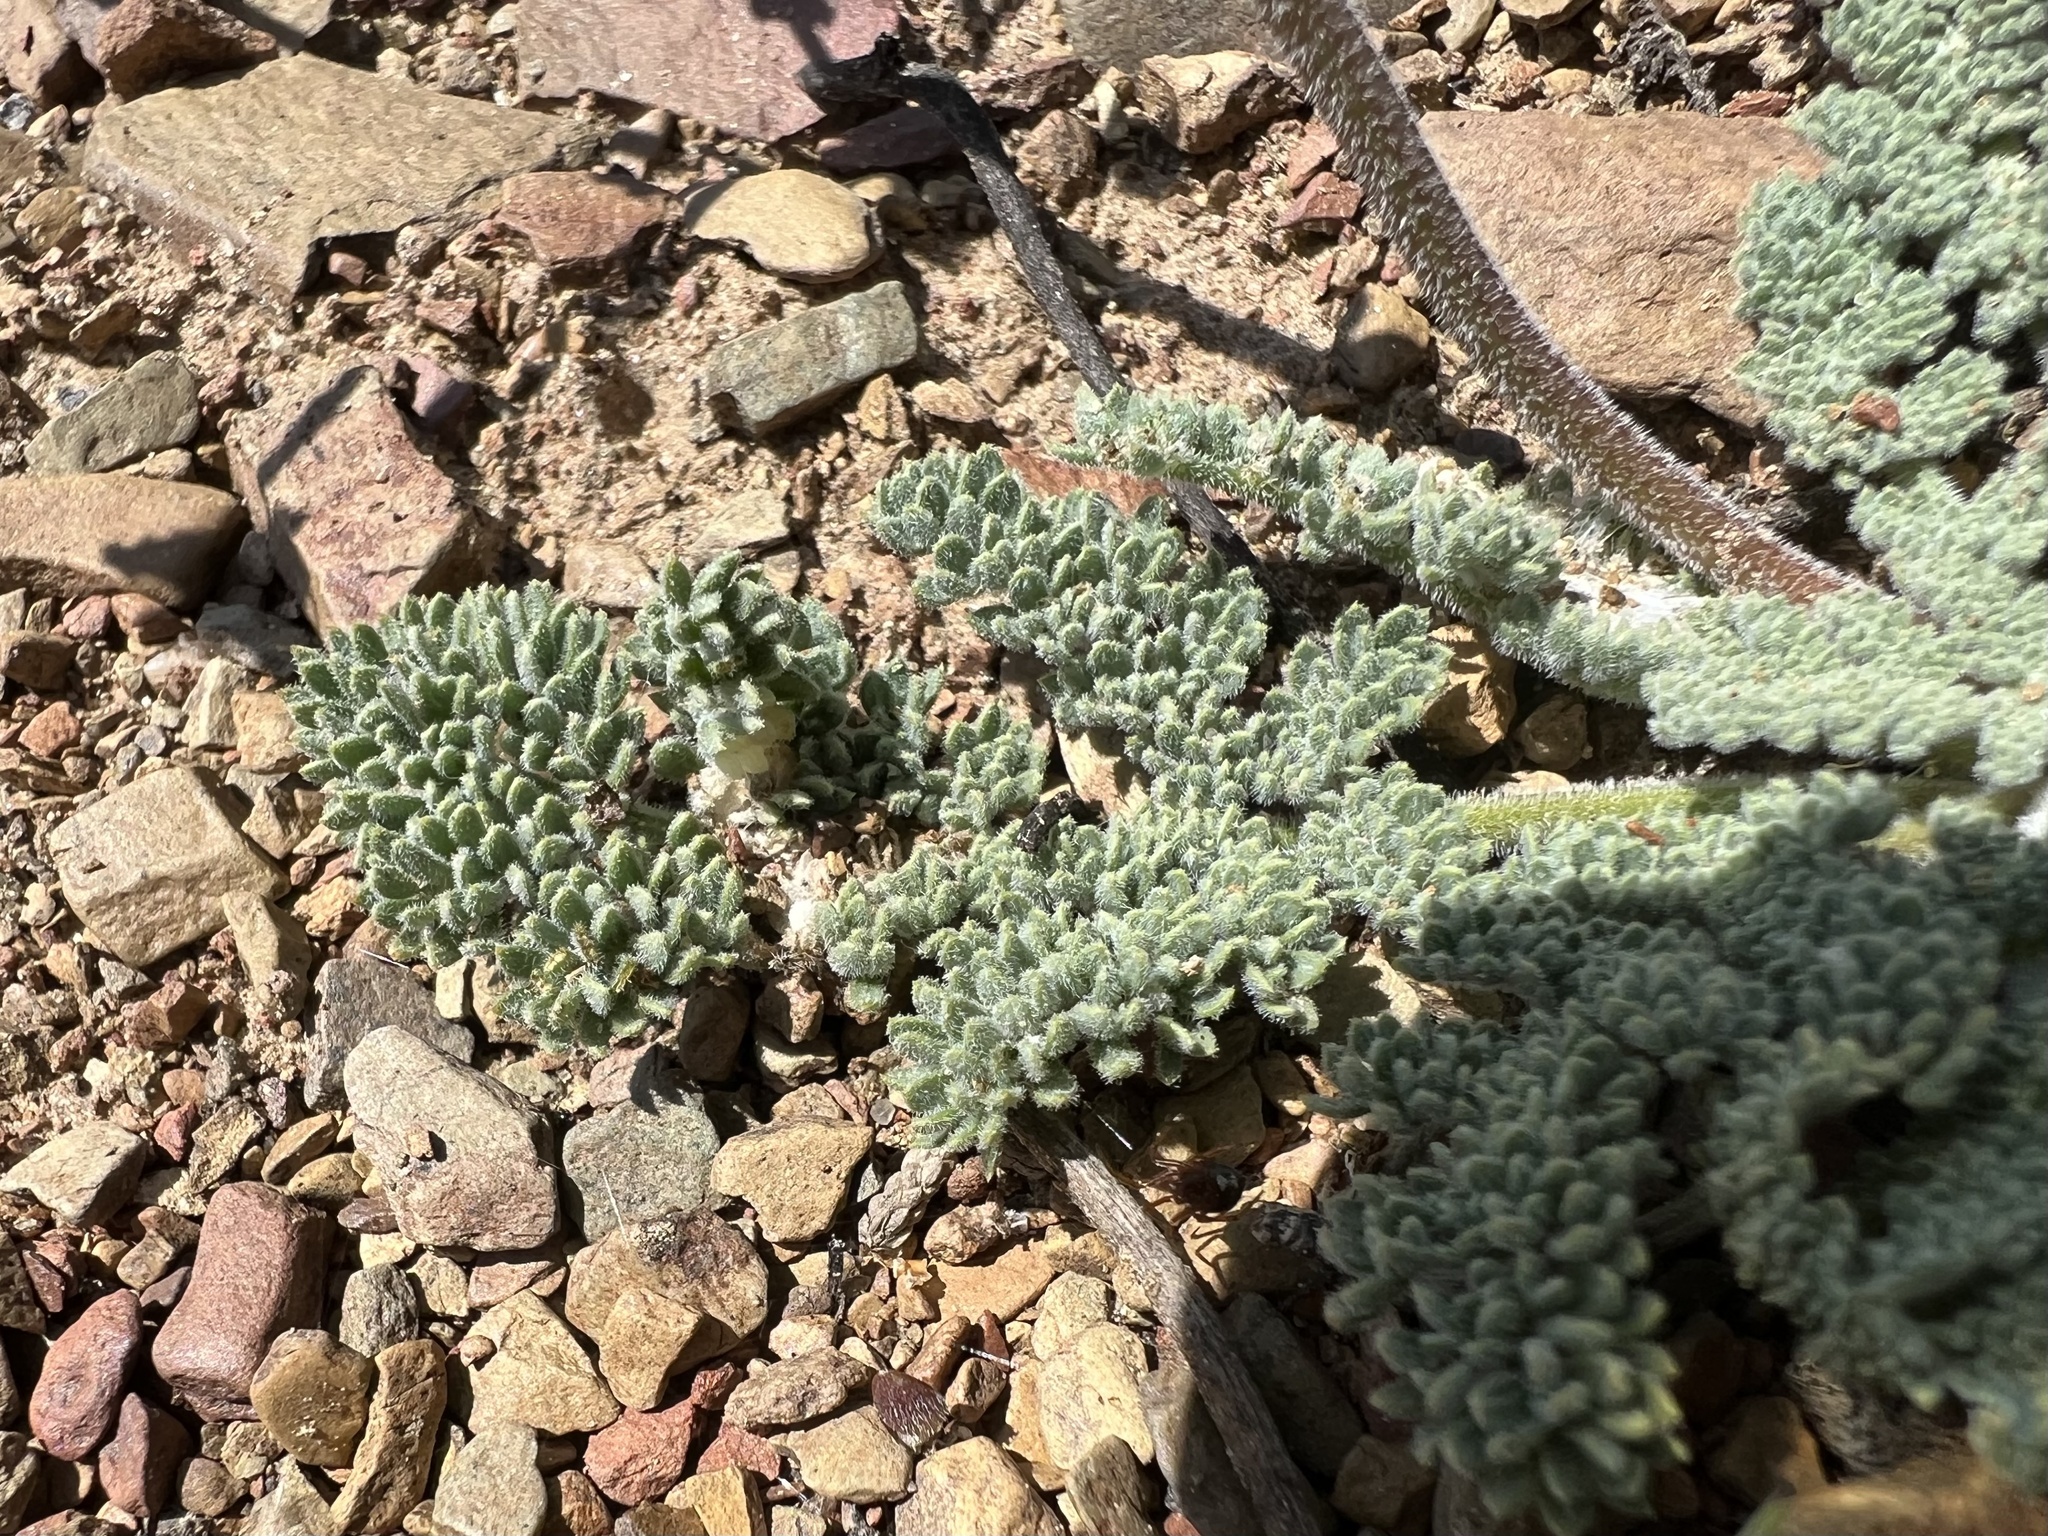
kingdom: Plantae
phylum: Tracheophyta
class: Magnoliopsida
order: Apiales
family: Apiaceae
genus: Lomatium
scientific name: Lomatium foeniculaceum
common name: Desert-parsley
